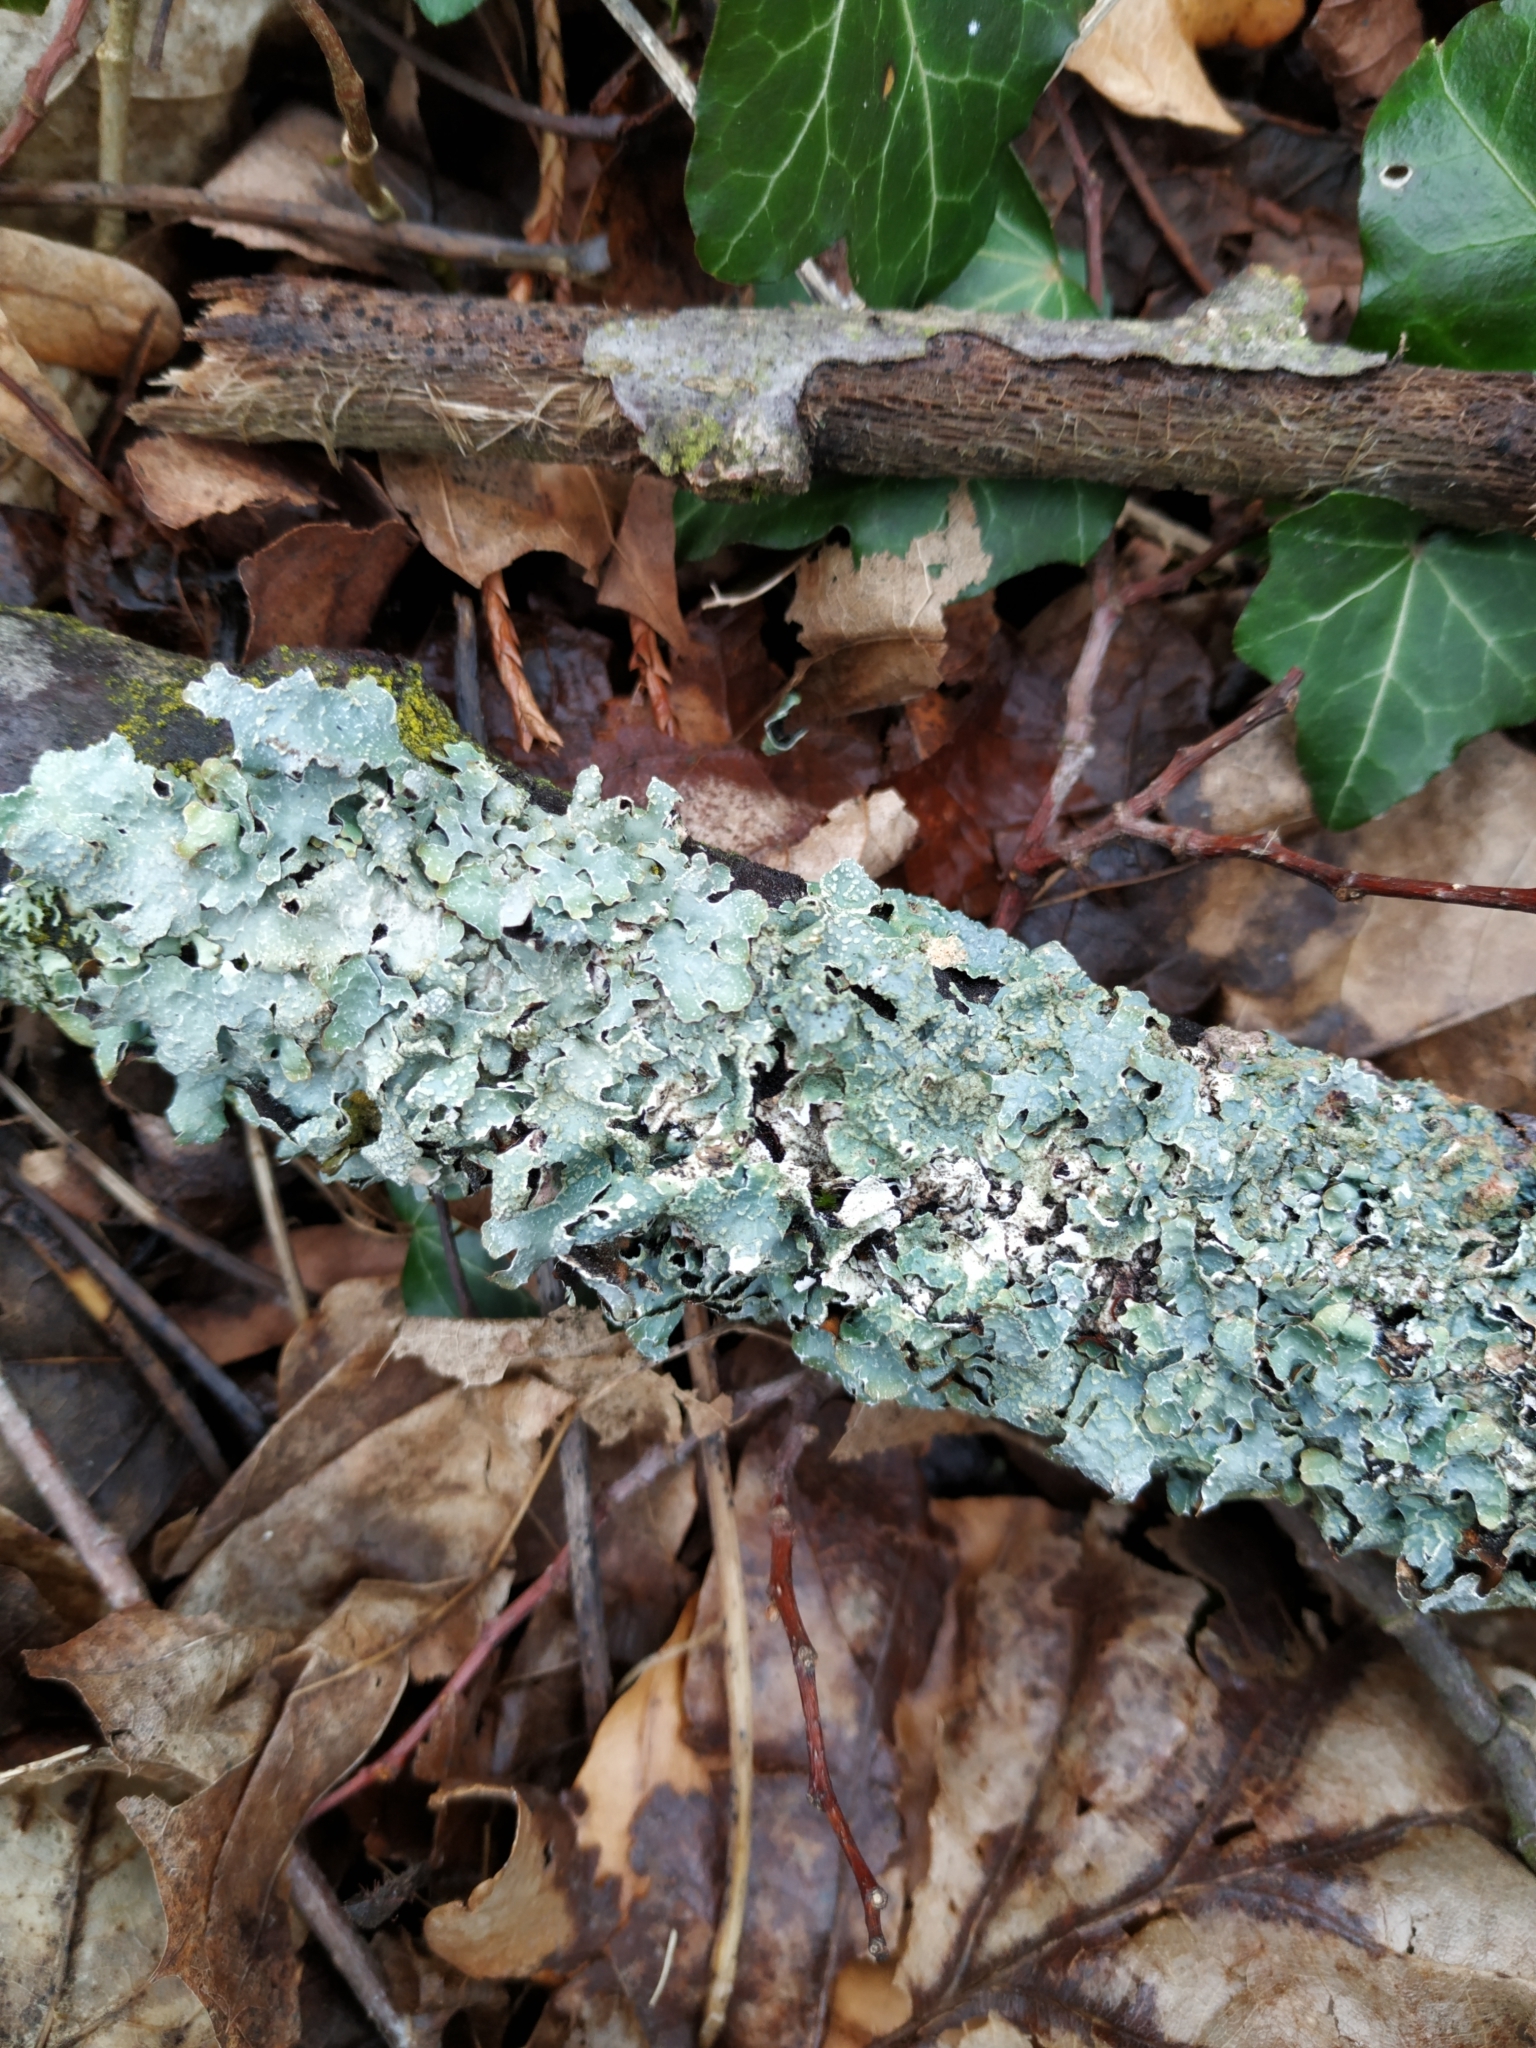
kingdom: Fungi
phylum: Ascomycota
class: Lecanoromycetes
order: Lecanorales
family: Parmeliaceae
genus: Parmelia
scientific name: Parmelia sulcata
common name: Netted shield lichen
